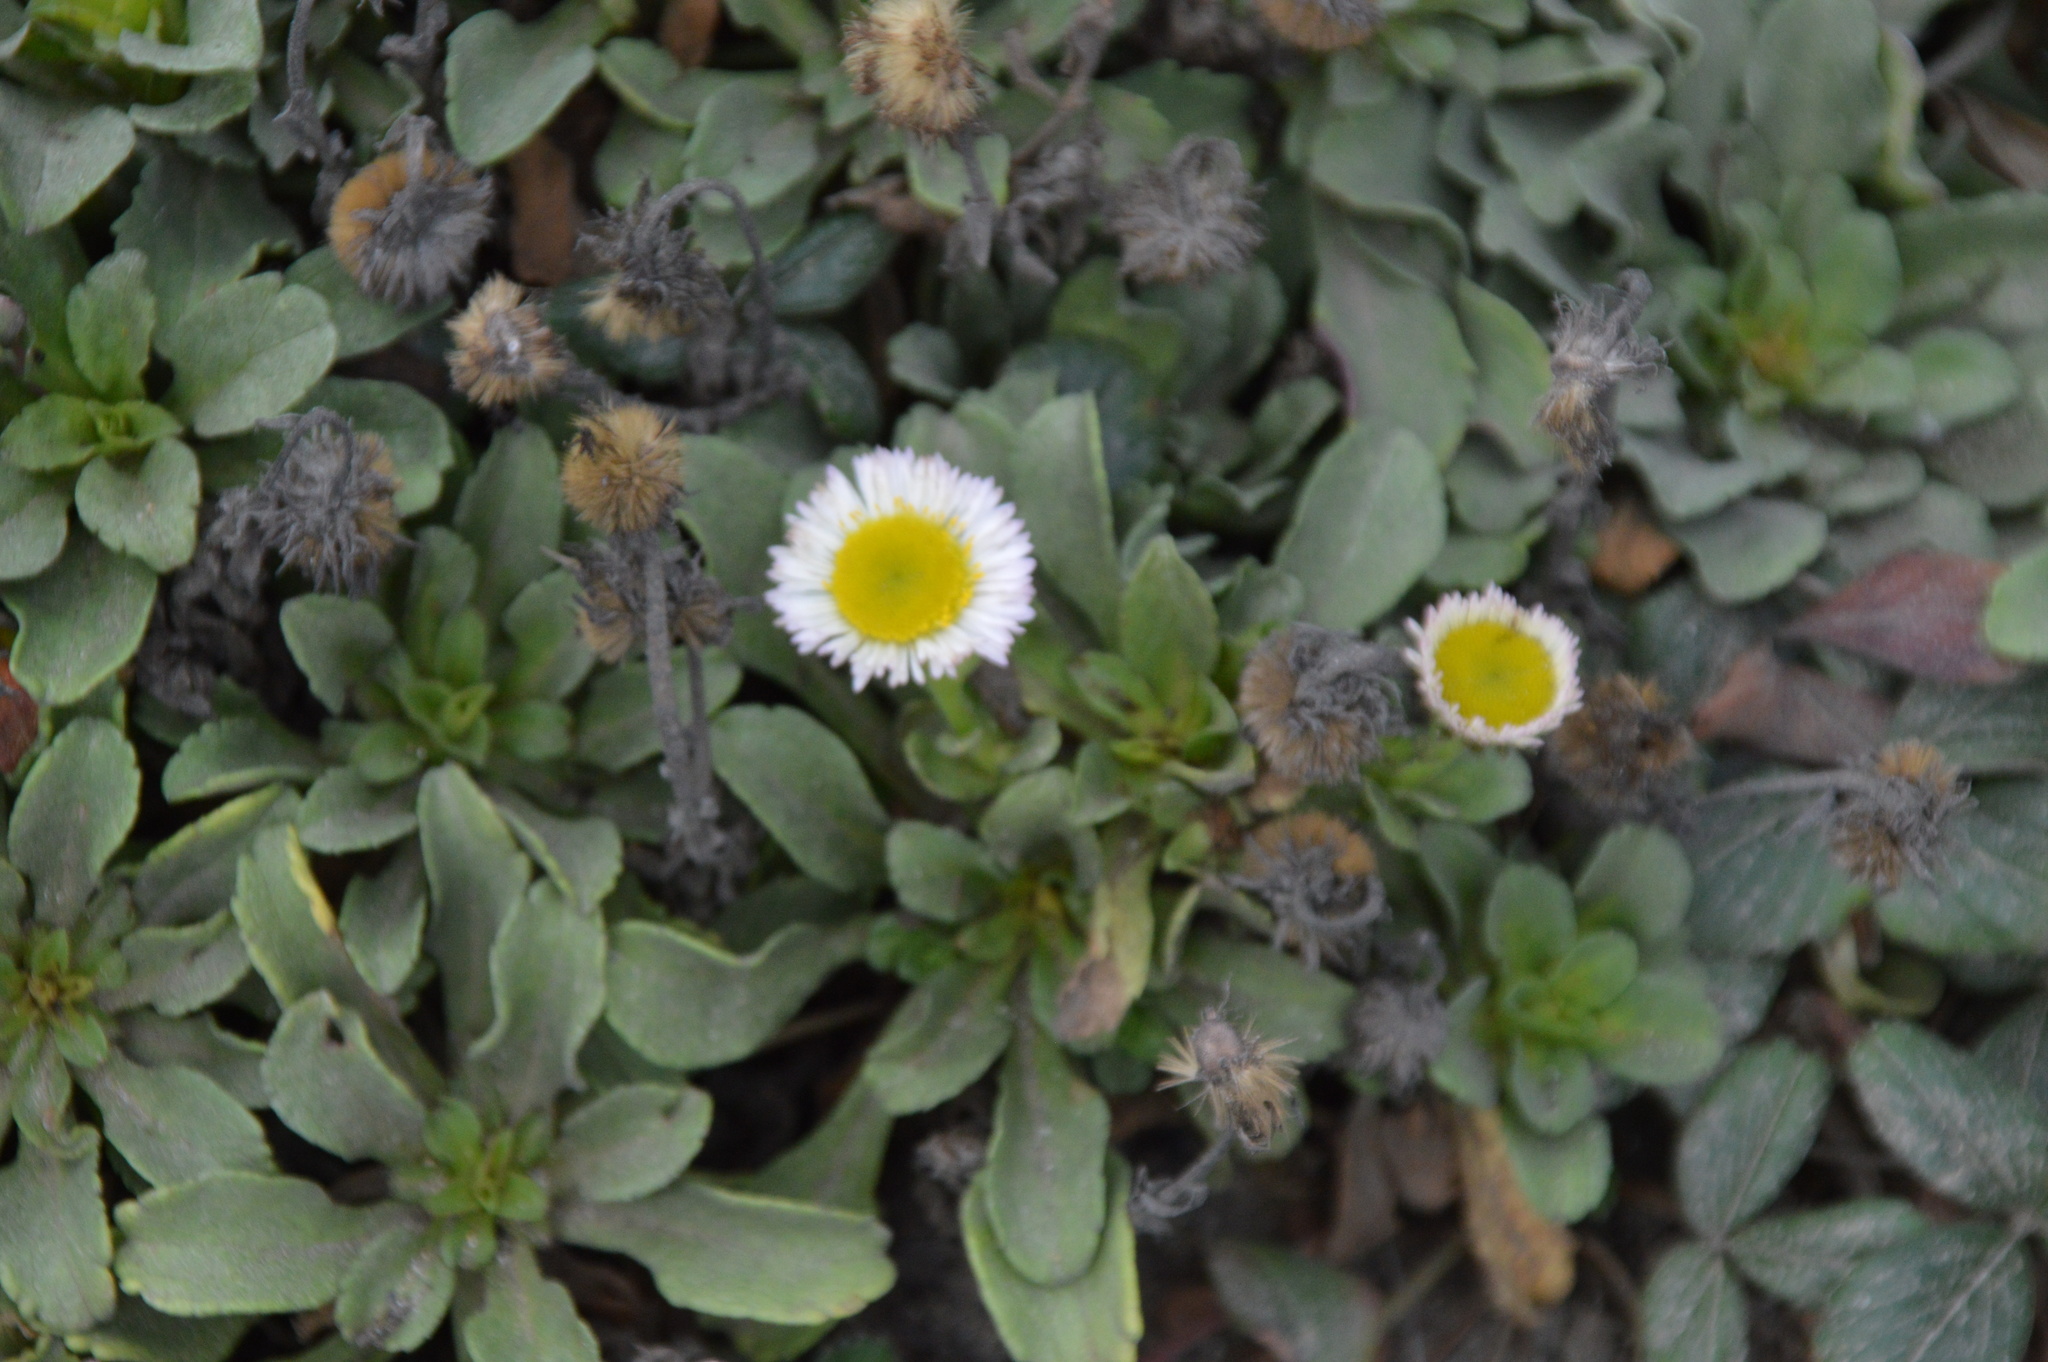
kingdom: Plantae
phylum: Tracheophyta
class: Magnoliopsida
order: Asterales
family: Asteraceae
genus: Erigeron
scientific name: Erigeron glaucus
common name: Seaside daisy
